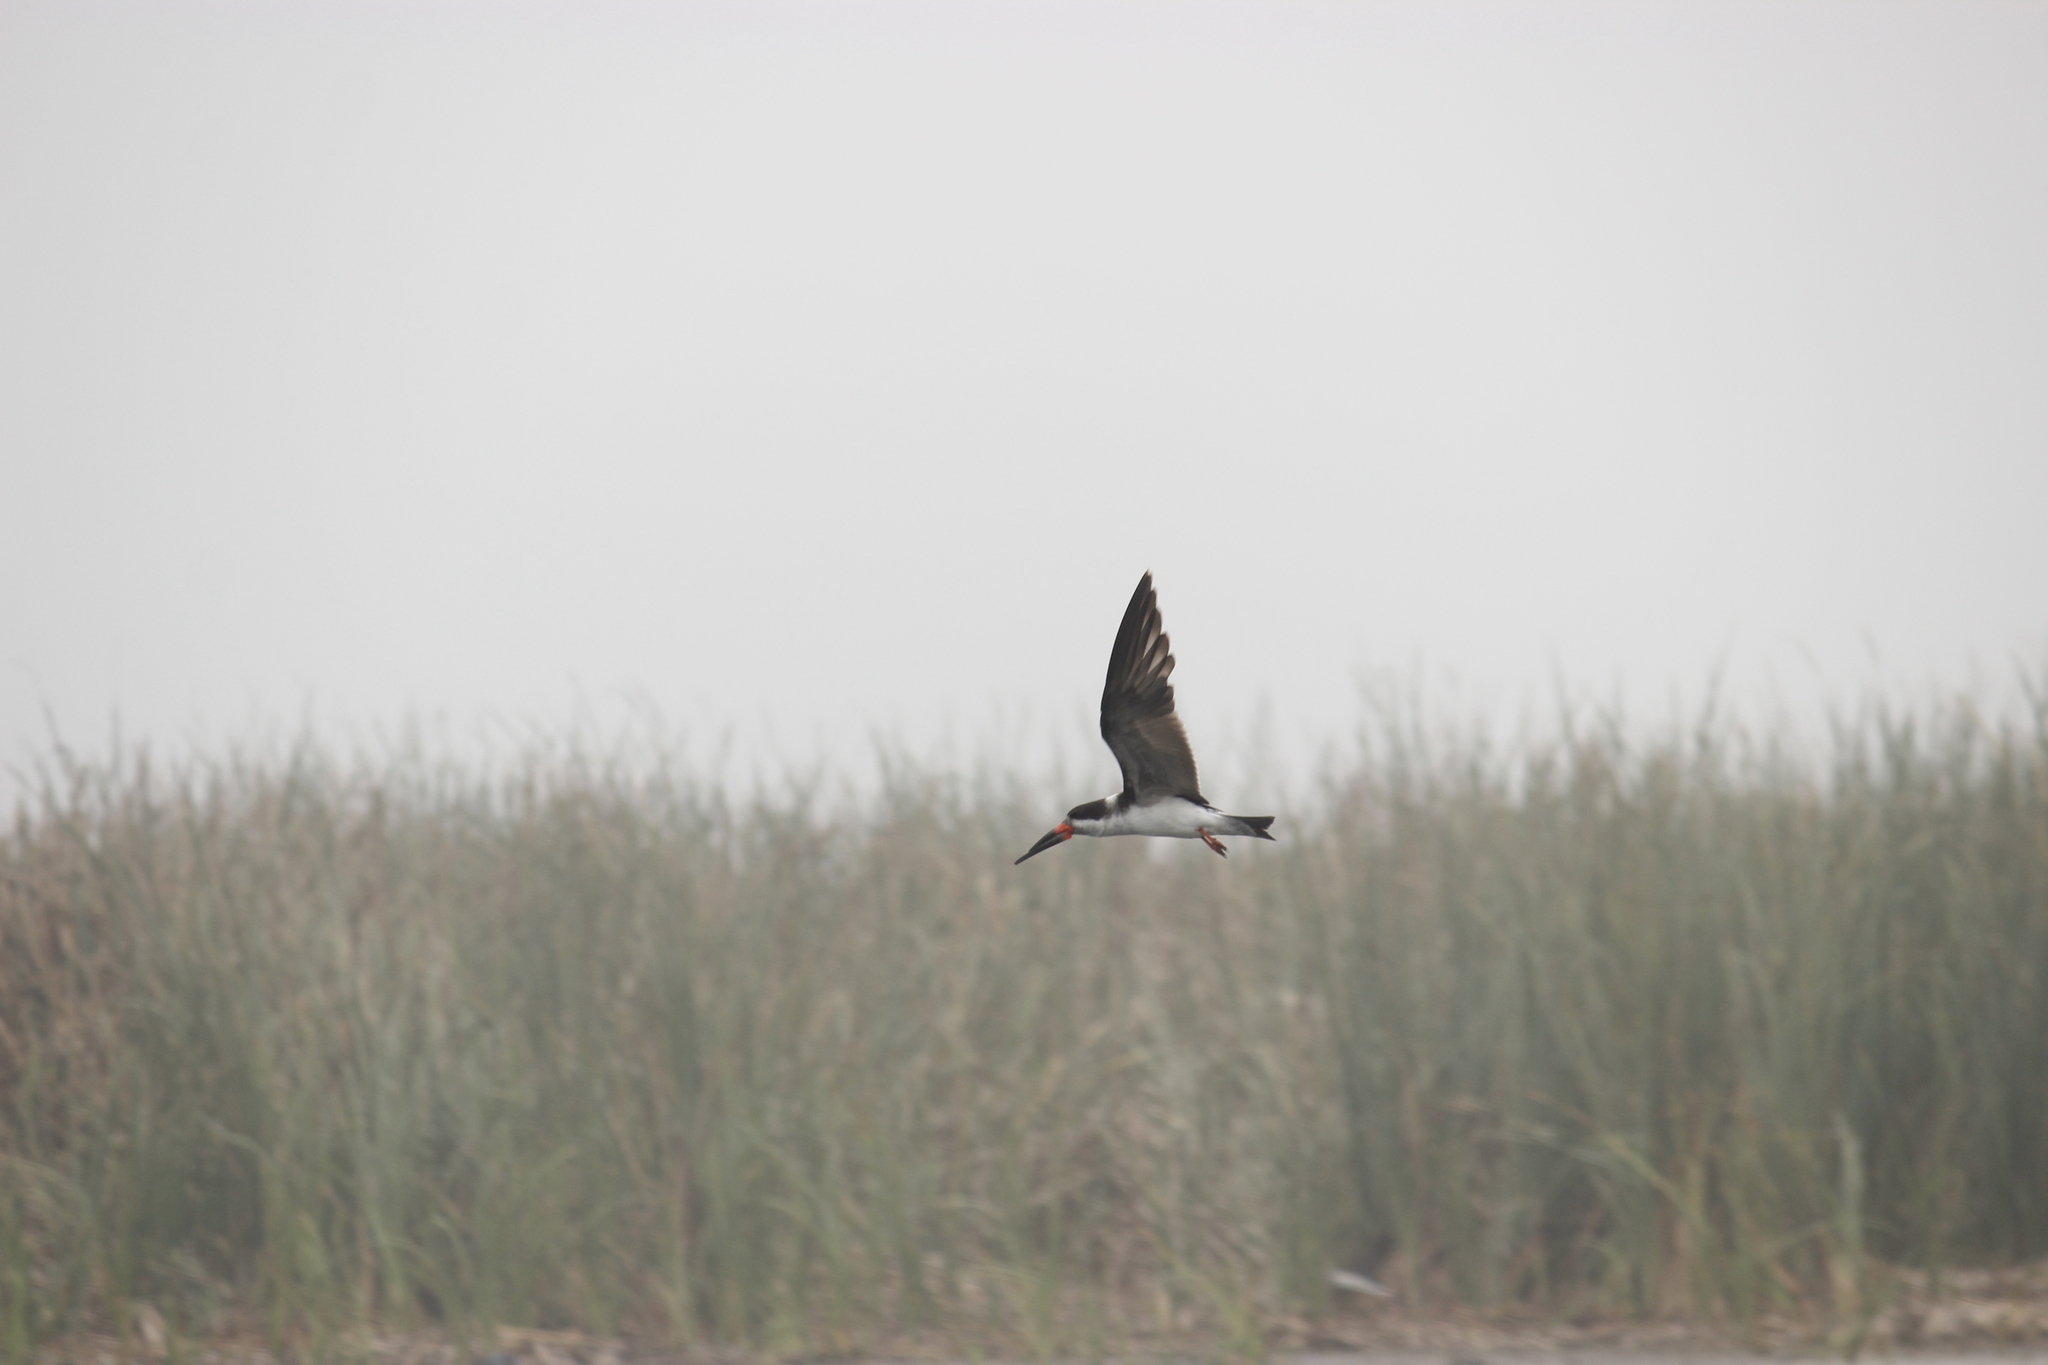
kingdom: Animalia
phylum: Chordata
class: Aves
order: Charadriiformes
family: Laridae
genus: Rynchops
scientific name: Rynchops niger
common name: Black skimmer
